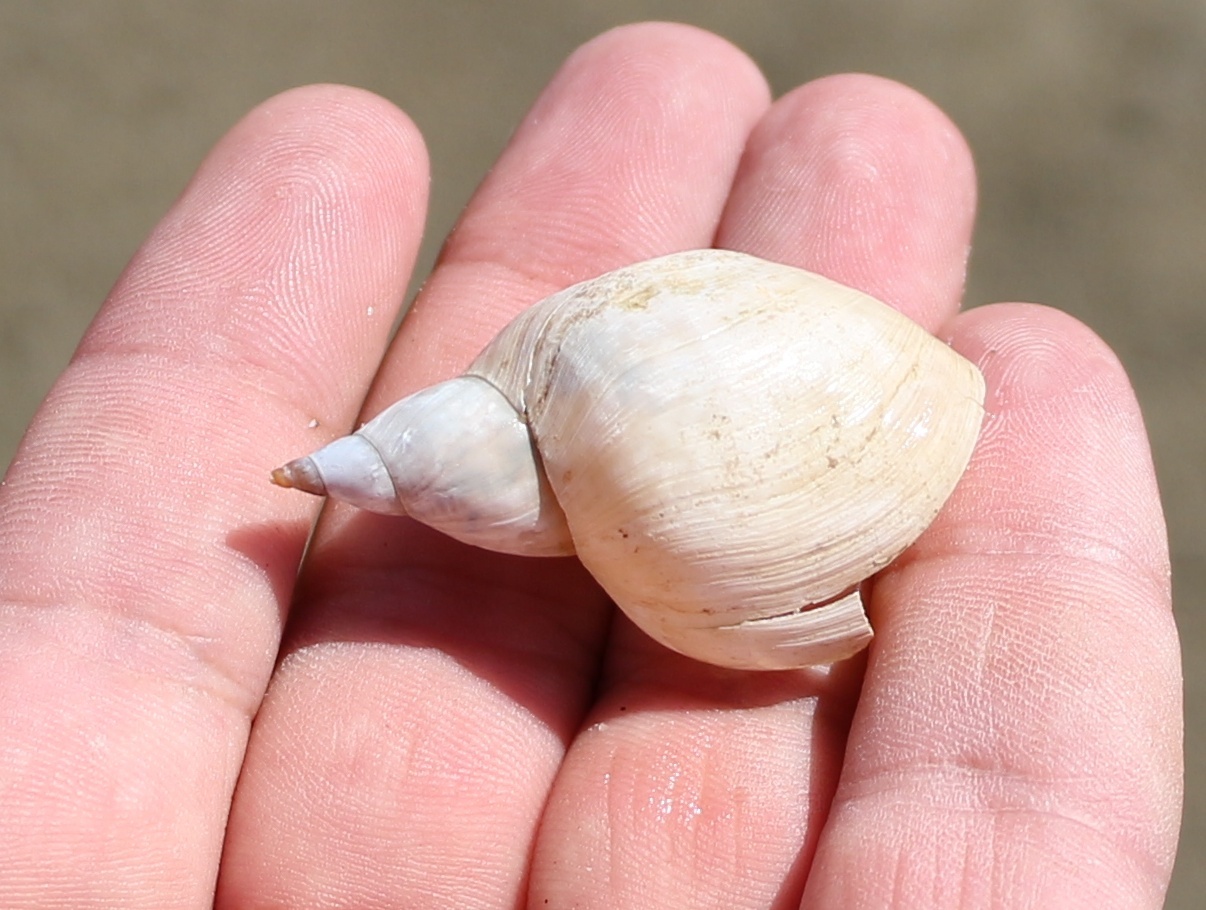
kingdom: Animalia
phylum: Mollusca
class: Gastropoda
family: Lymnaeidae
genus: Lymnaea
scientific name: Lymnaea stagnalis
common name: Great pond snail
